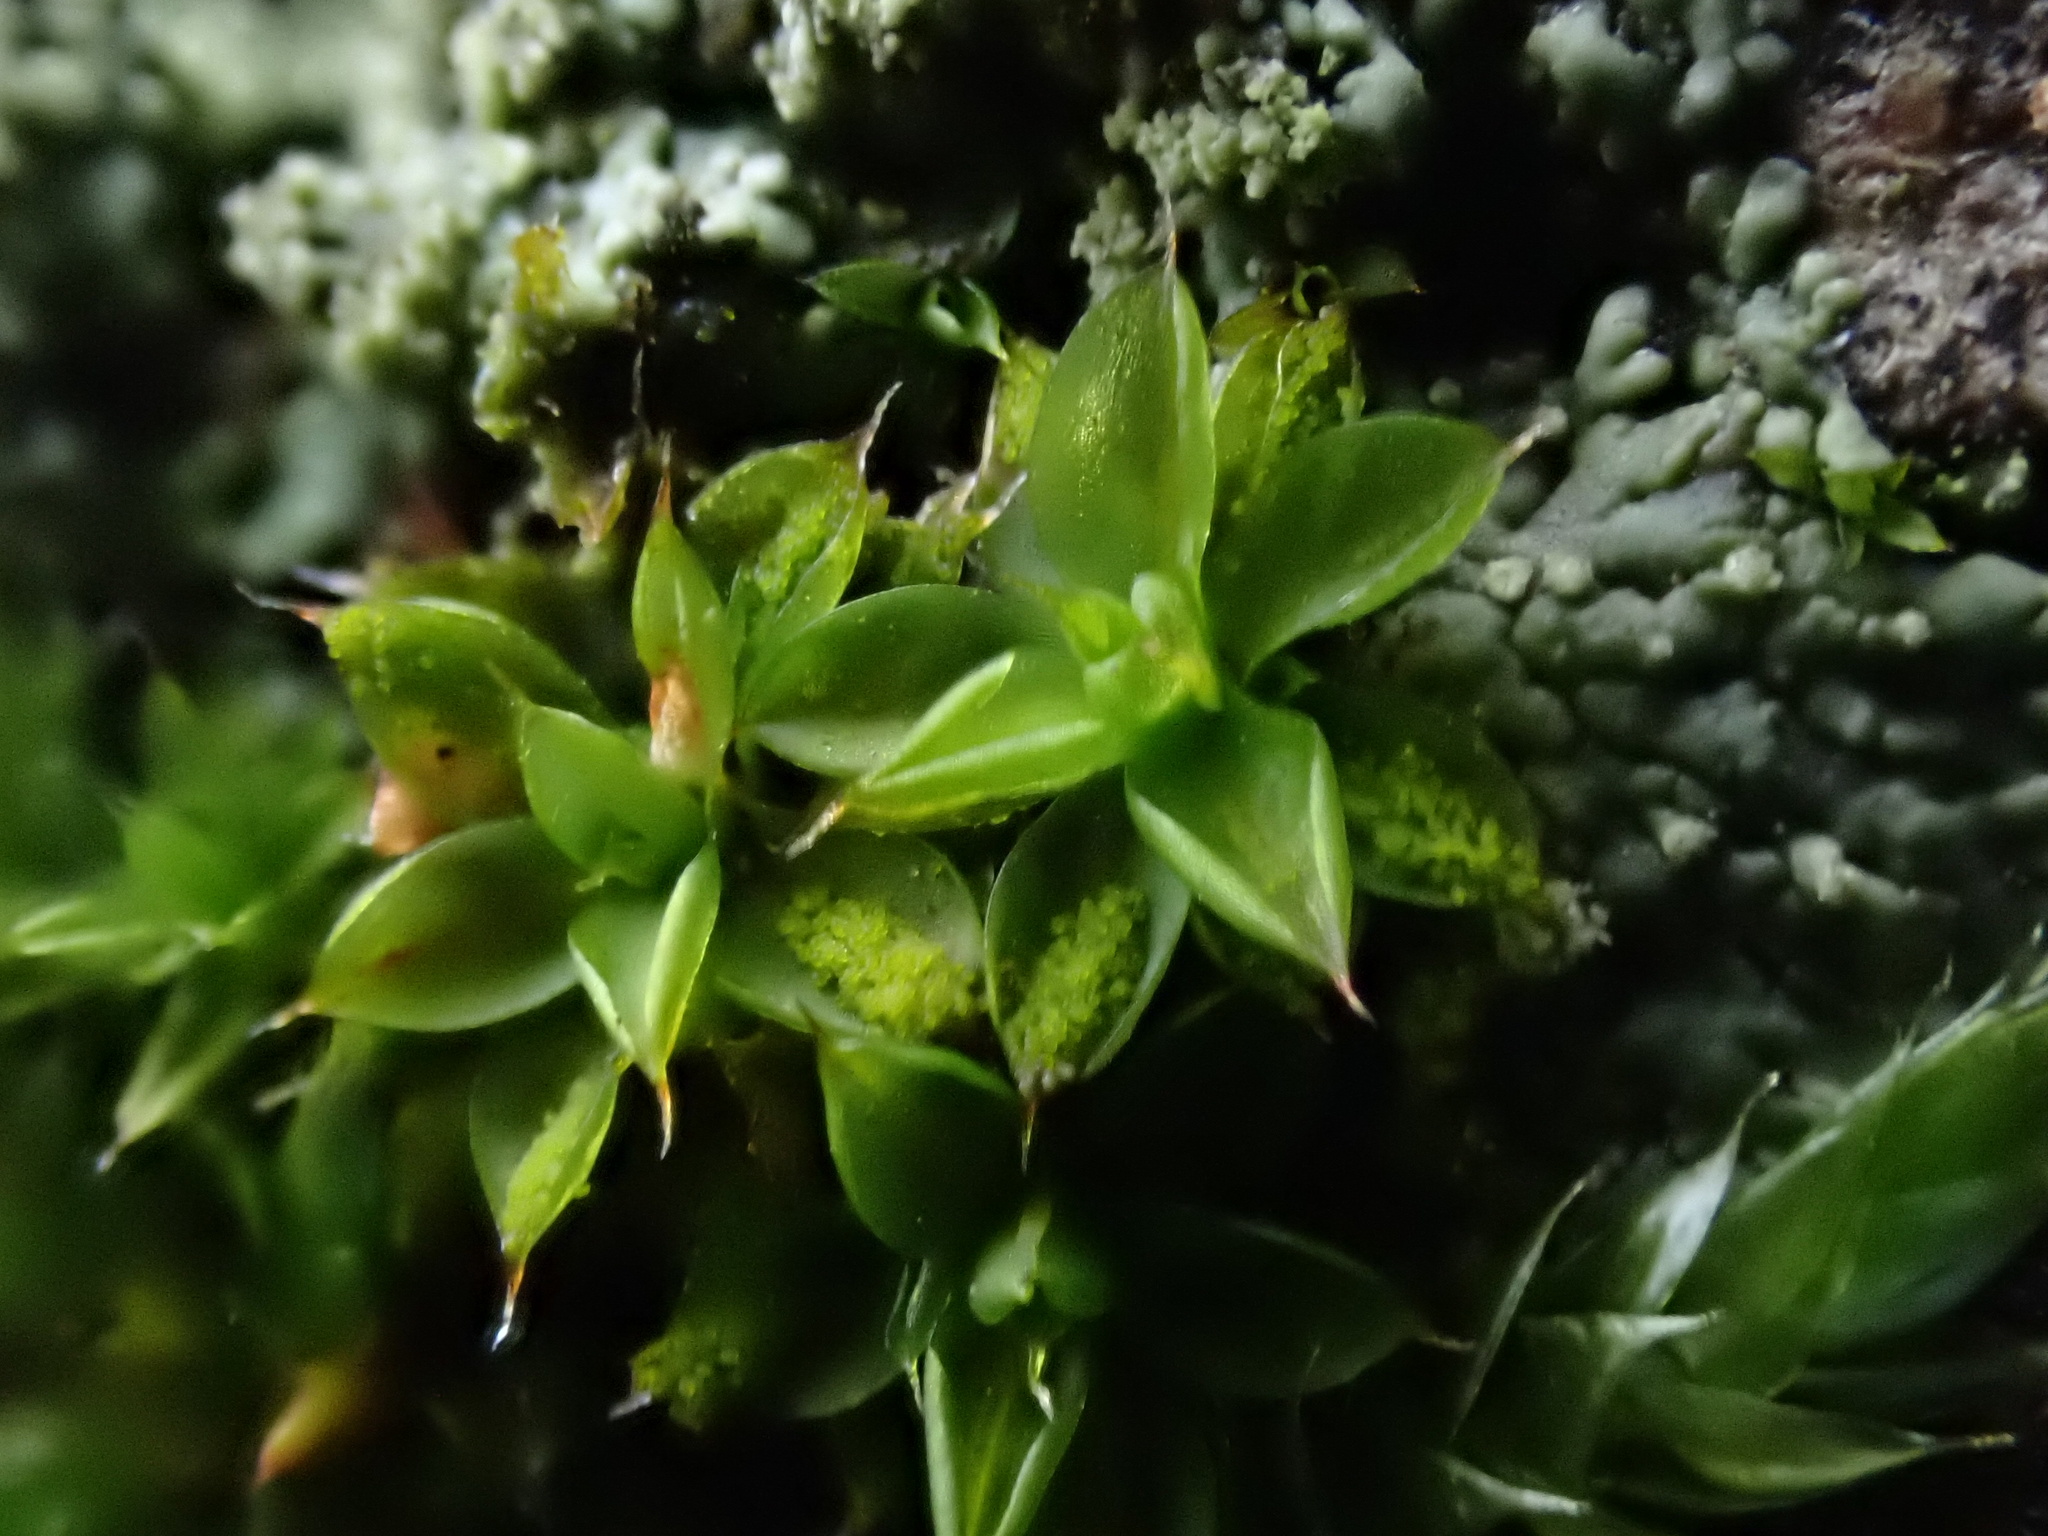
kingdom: Plantae
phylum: Bryophyta
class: Bryopsida
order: Pottiales
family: Pottiaceae
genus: Syntrichia
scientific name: Syntrichia papillosa
